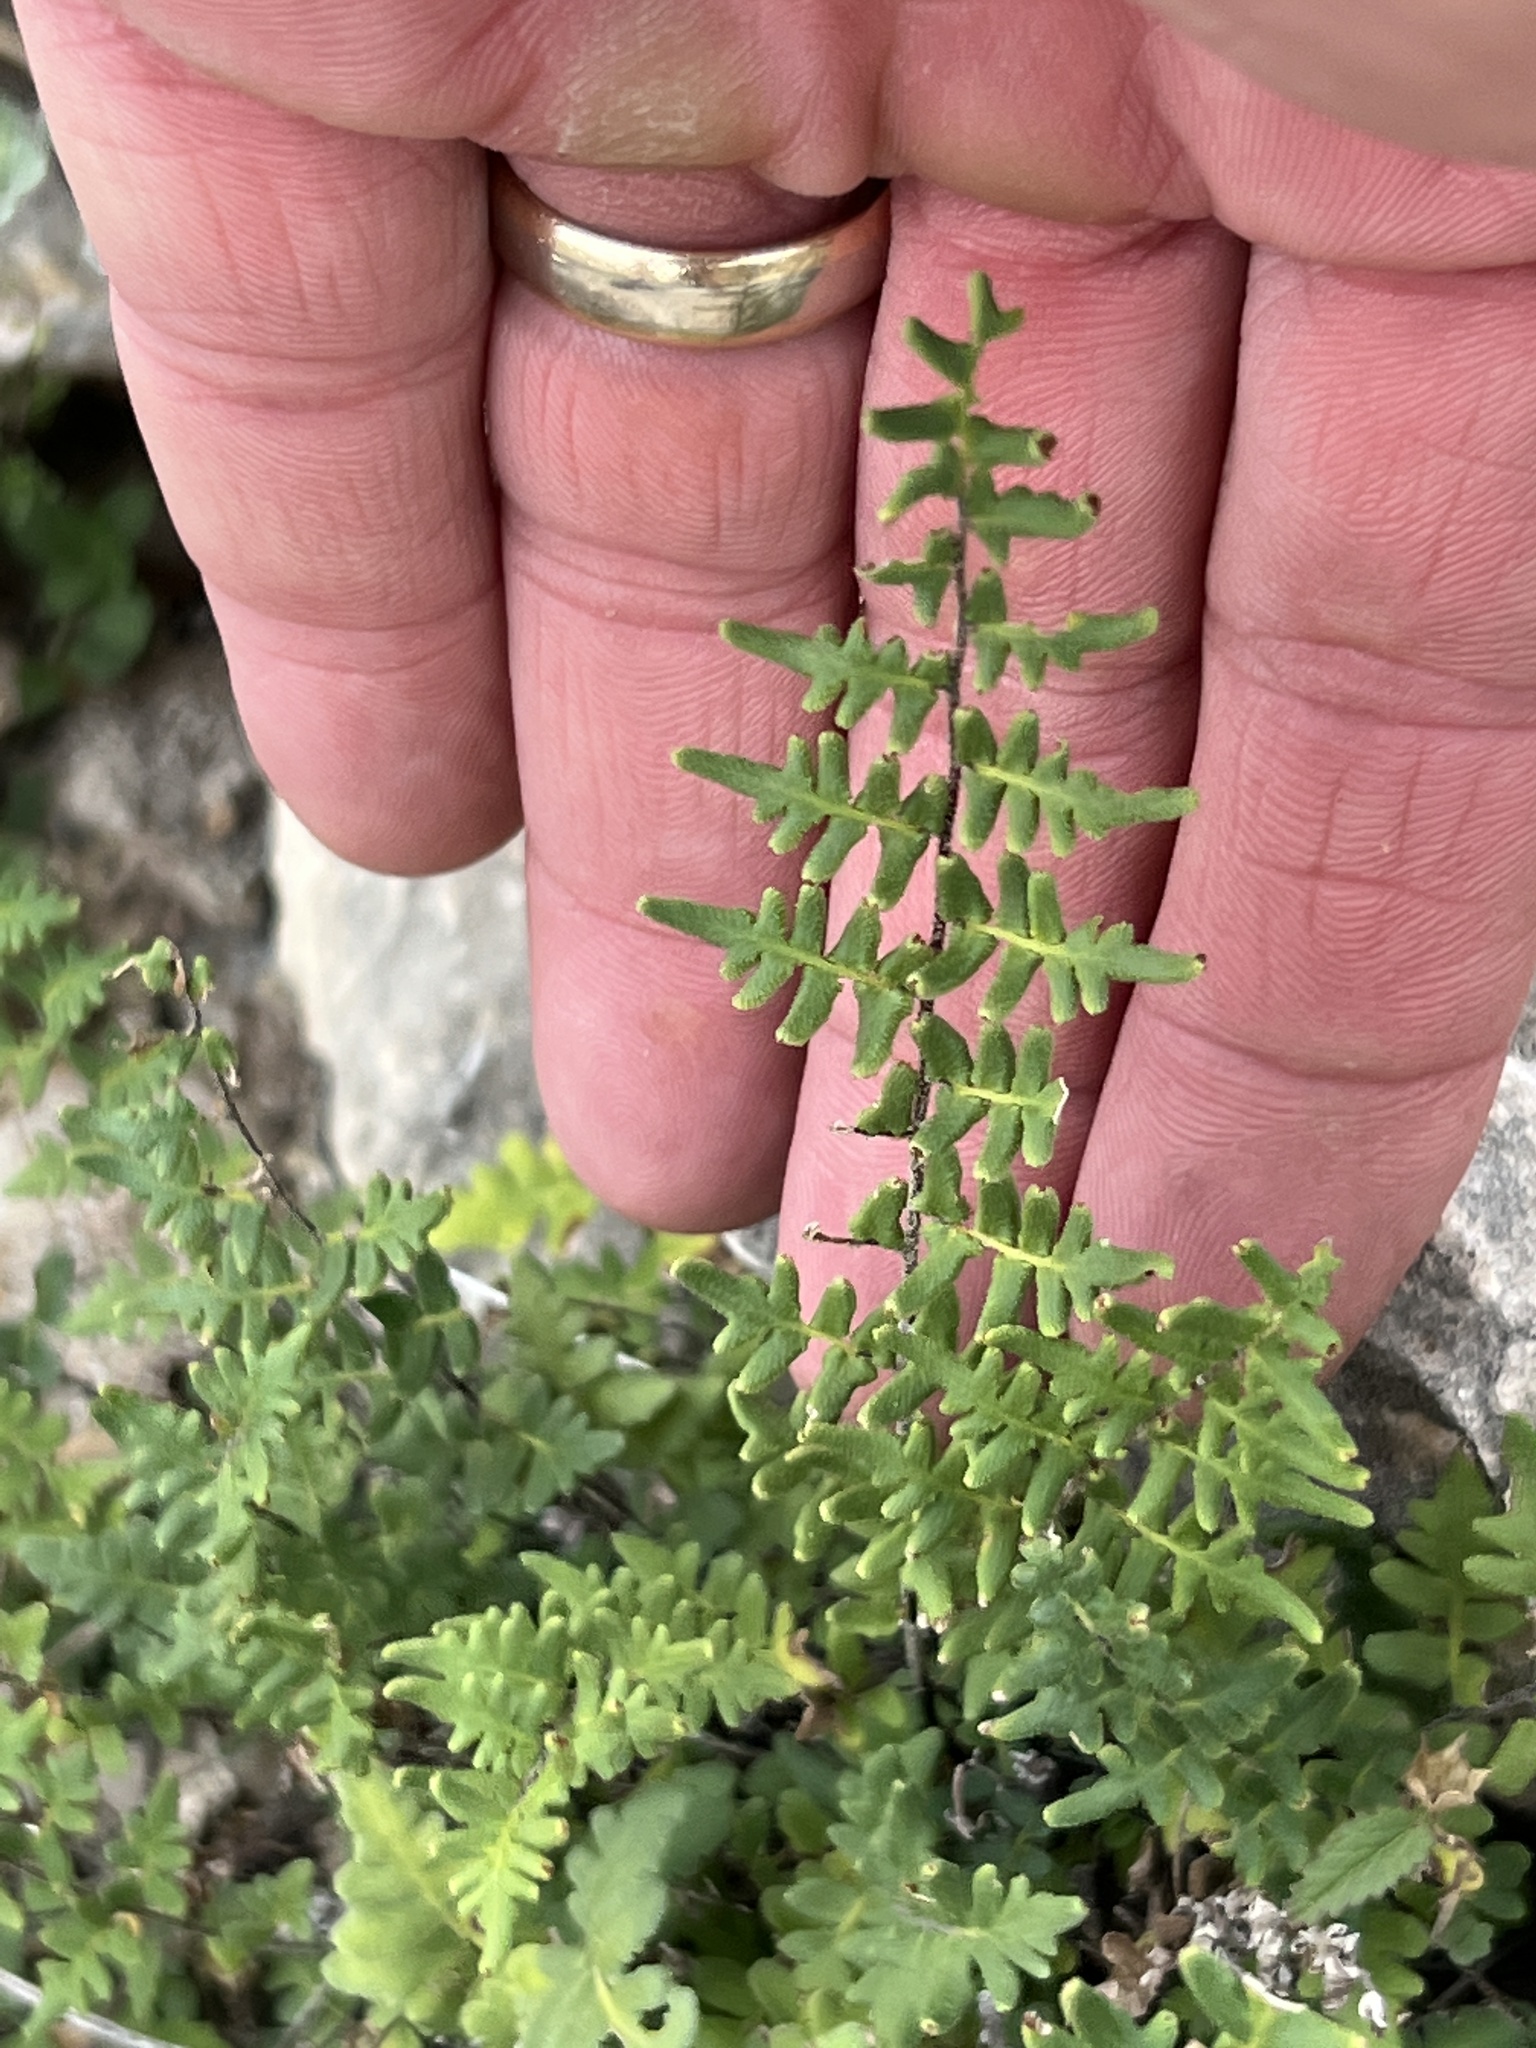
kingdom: Plantae
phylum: Tracheophyta
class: Polypodiopsida
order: Polypodiales
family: Pteridaceae
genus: Myriopteris
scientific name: Myriopteris scabra
